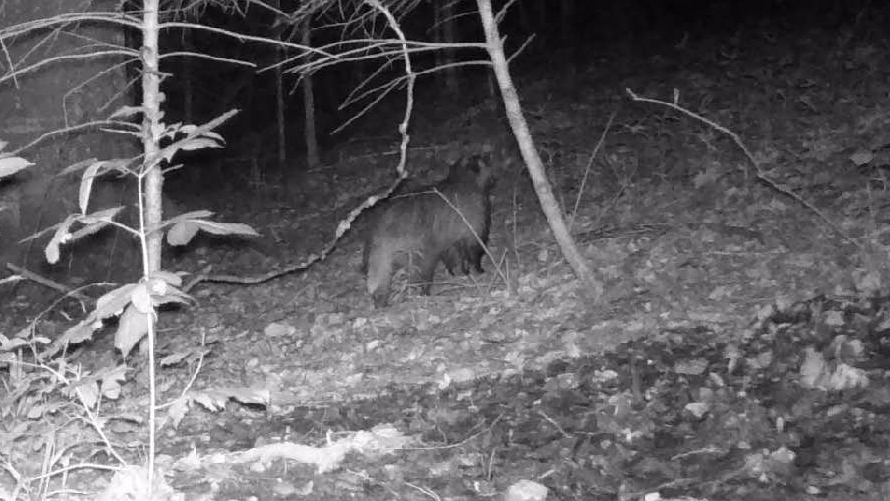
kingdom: Animalia
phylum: Chordata
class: Mammalia
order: Carnivora
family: Mustelidae
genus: Meles
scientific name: Meles meles
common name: Eurasian badger
